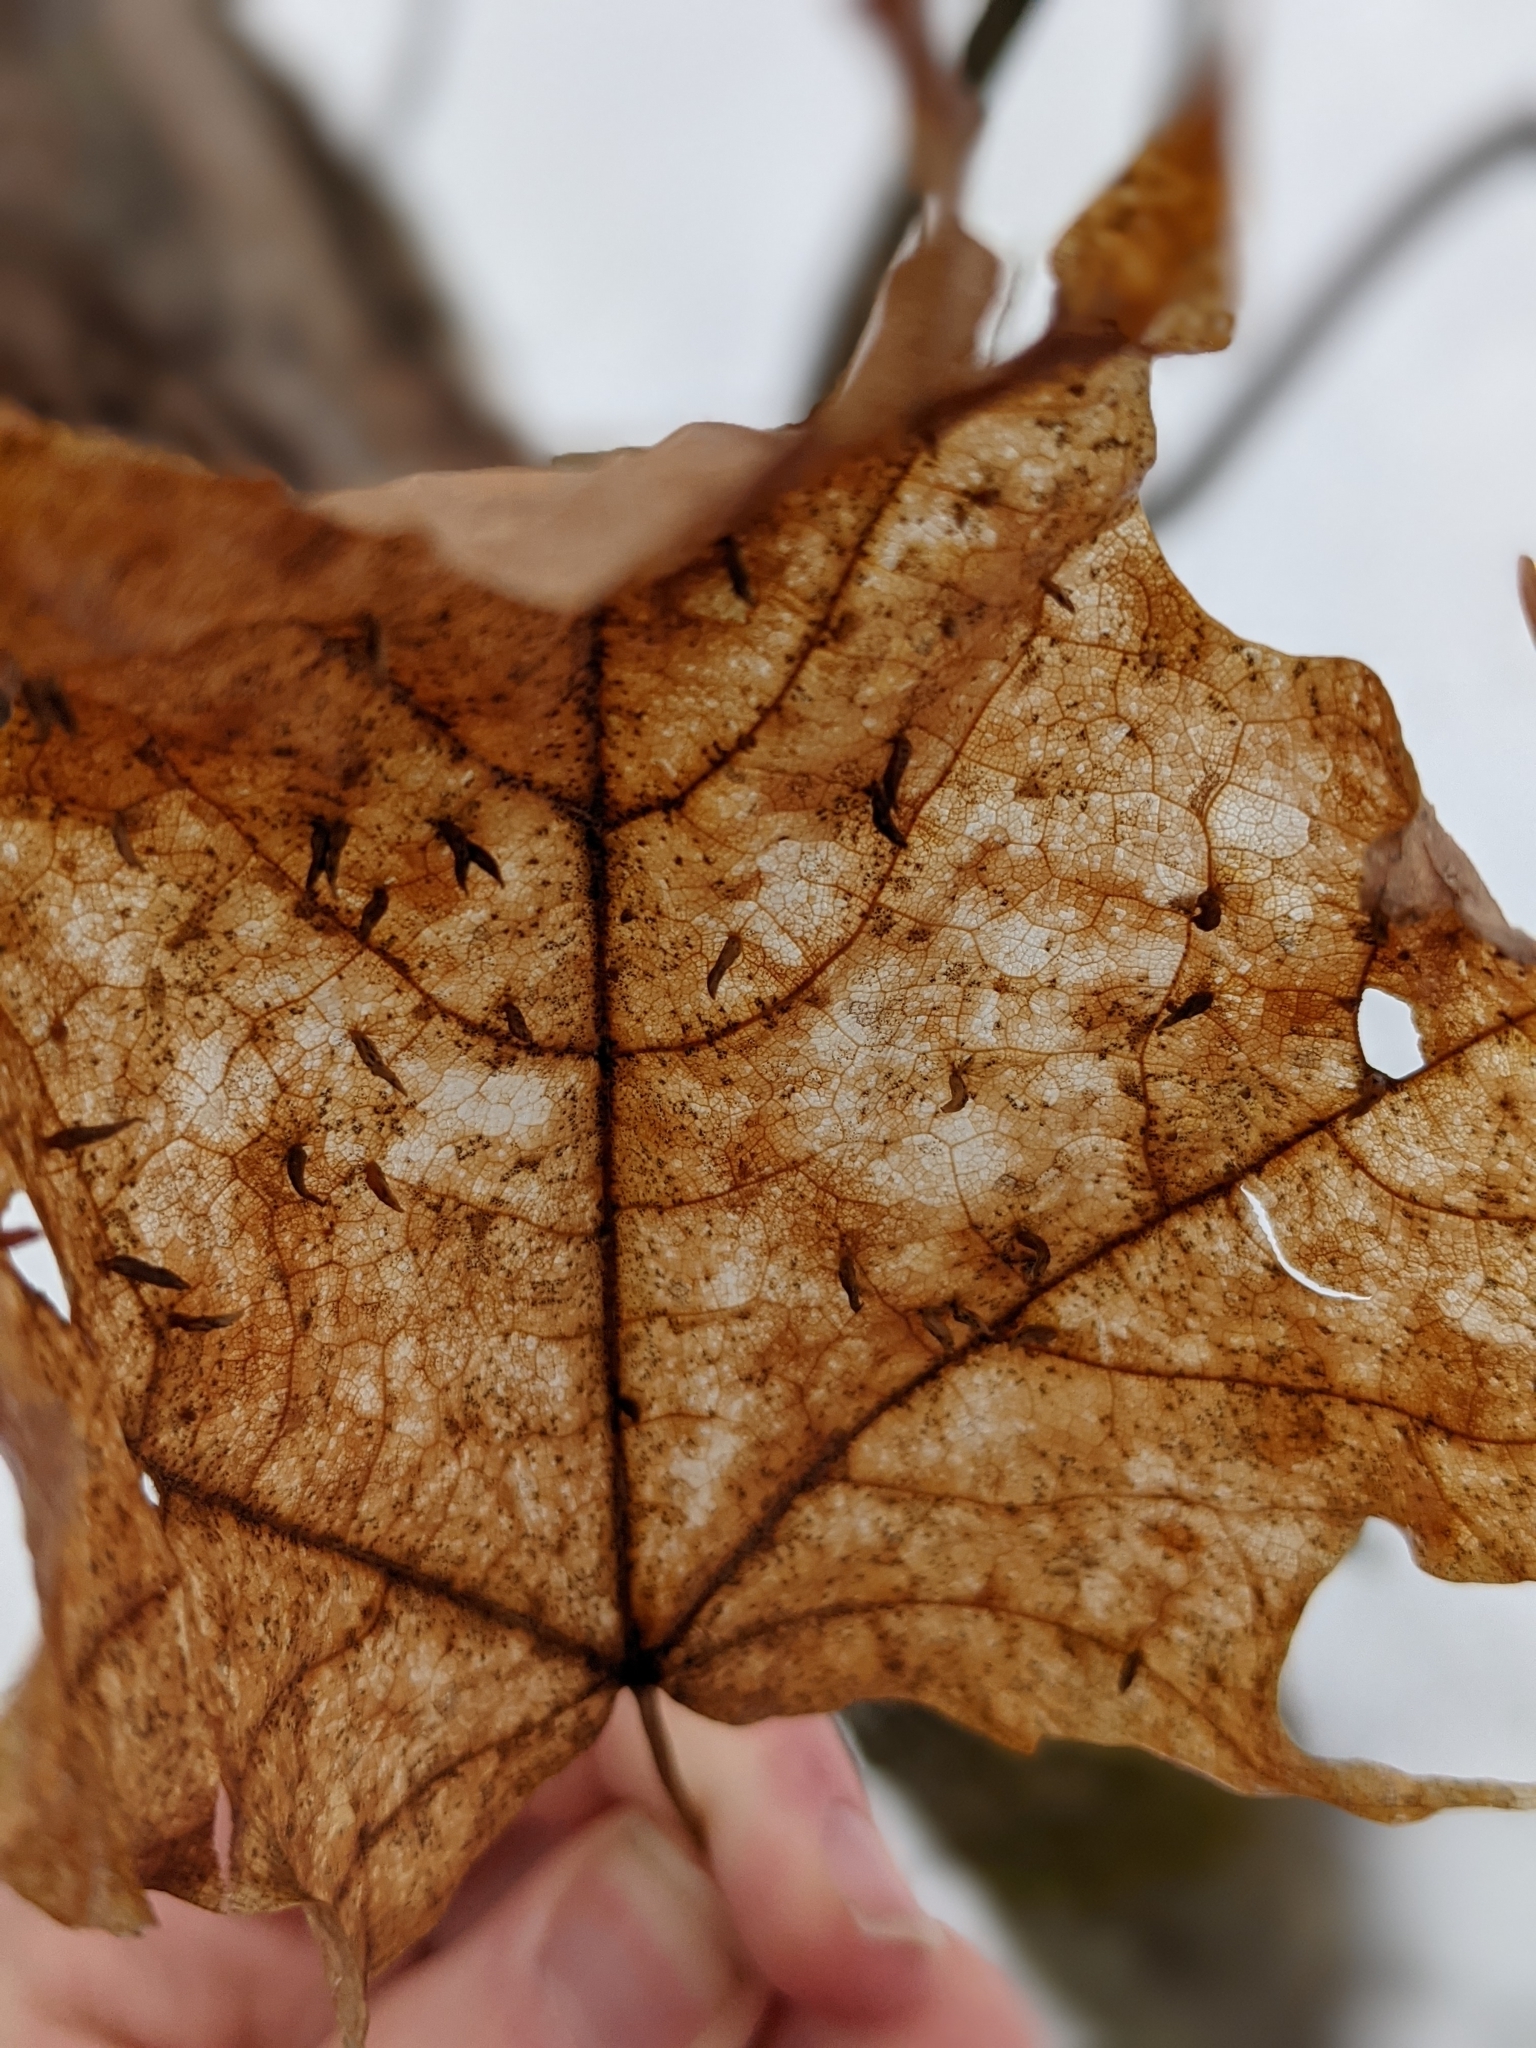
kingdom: Animalia
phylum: Arthropoda
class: Arachnida
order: Trombidiformes
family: Eriophyidae
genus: Vasates
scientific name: Vasates aceriscrumena
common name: Maple spindle gall mite
